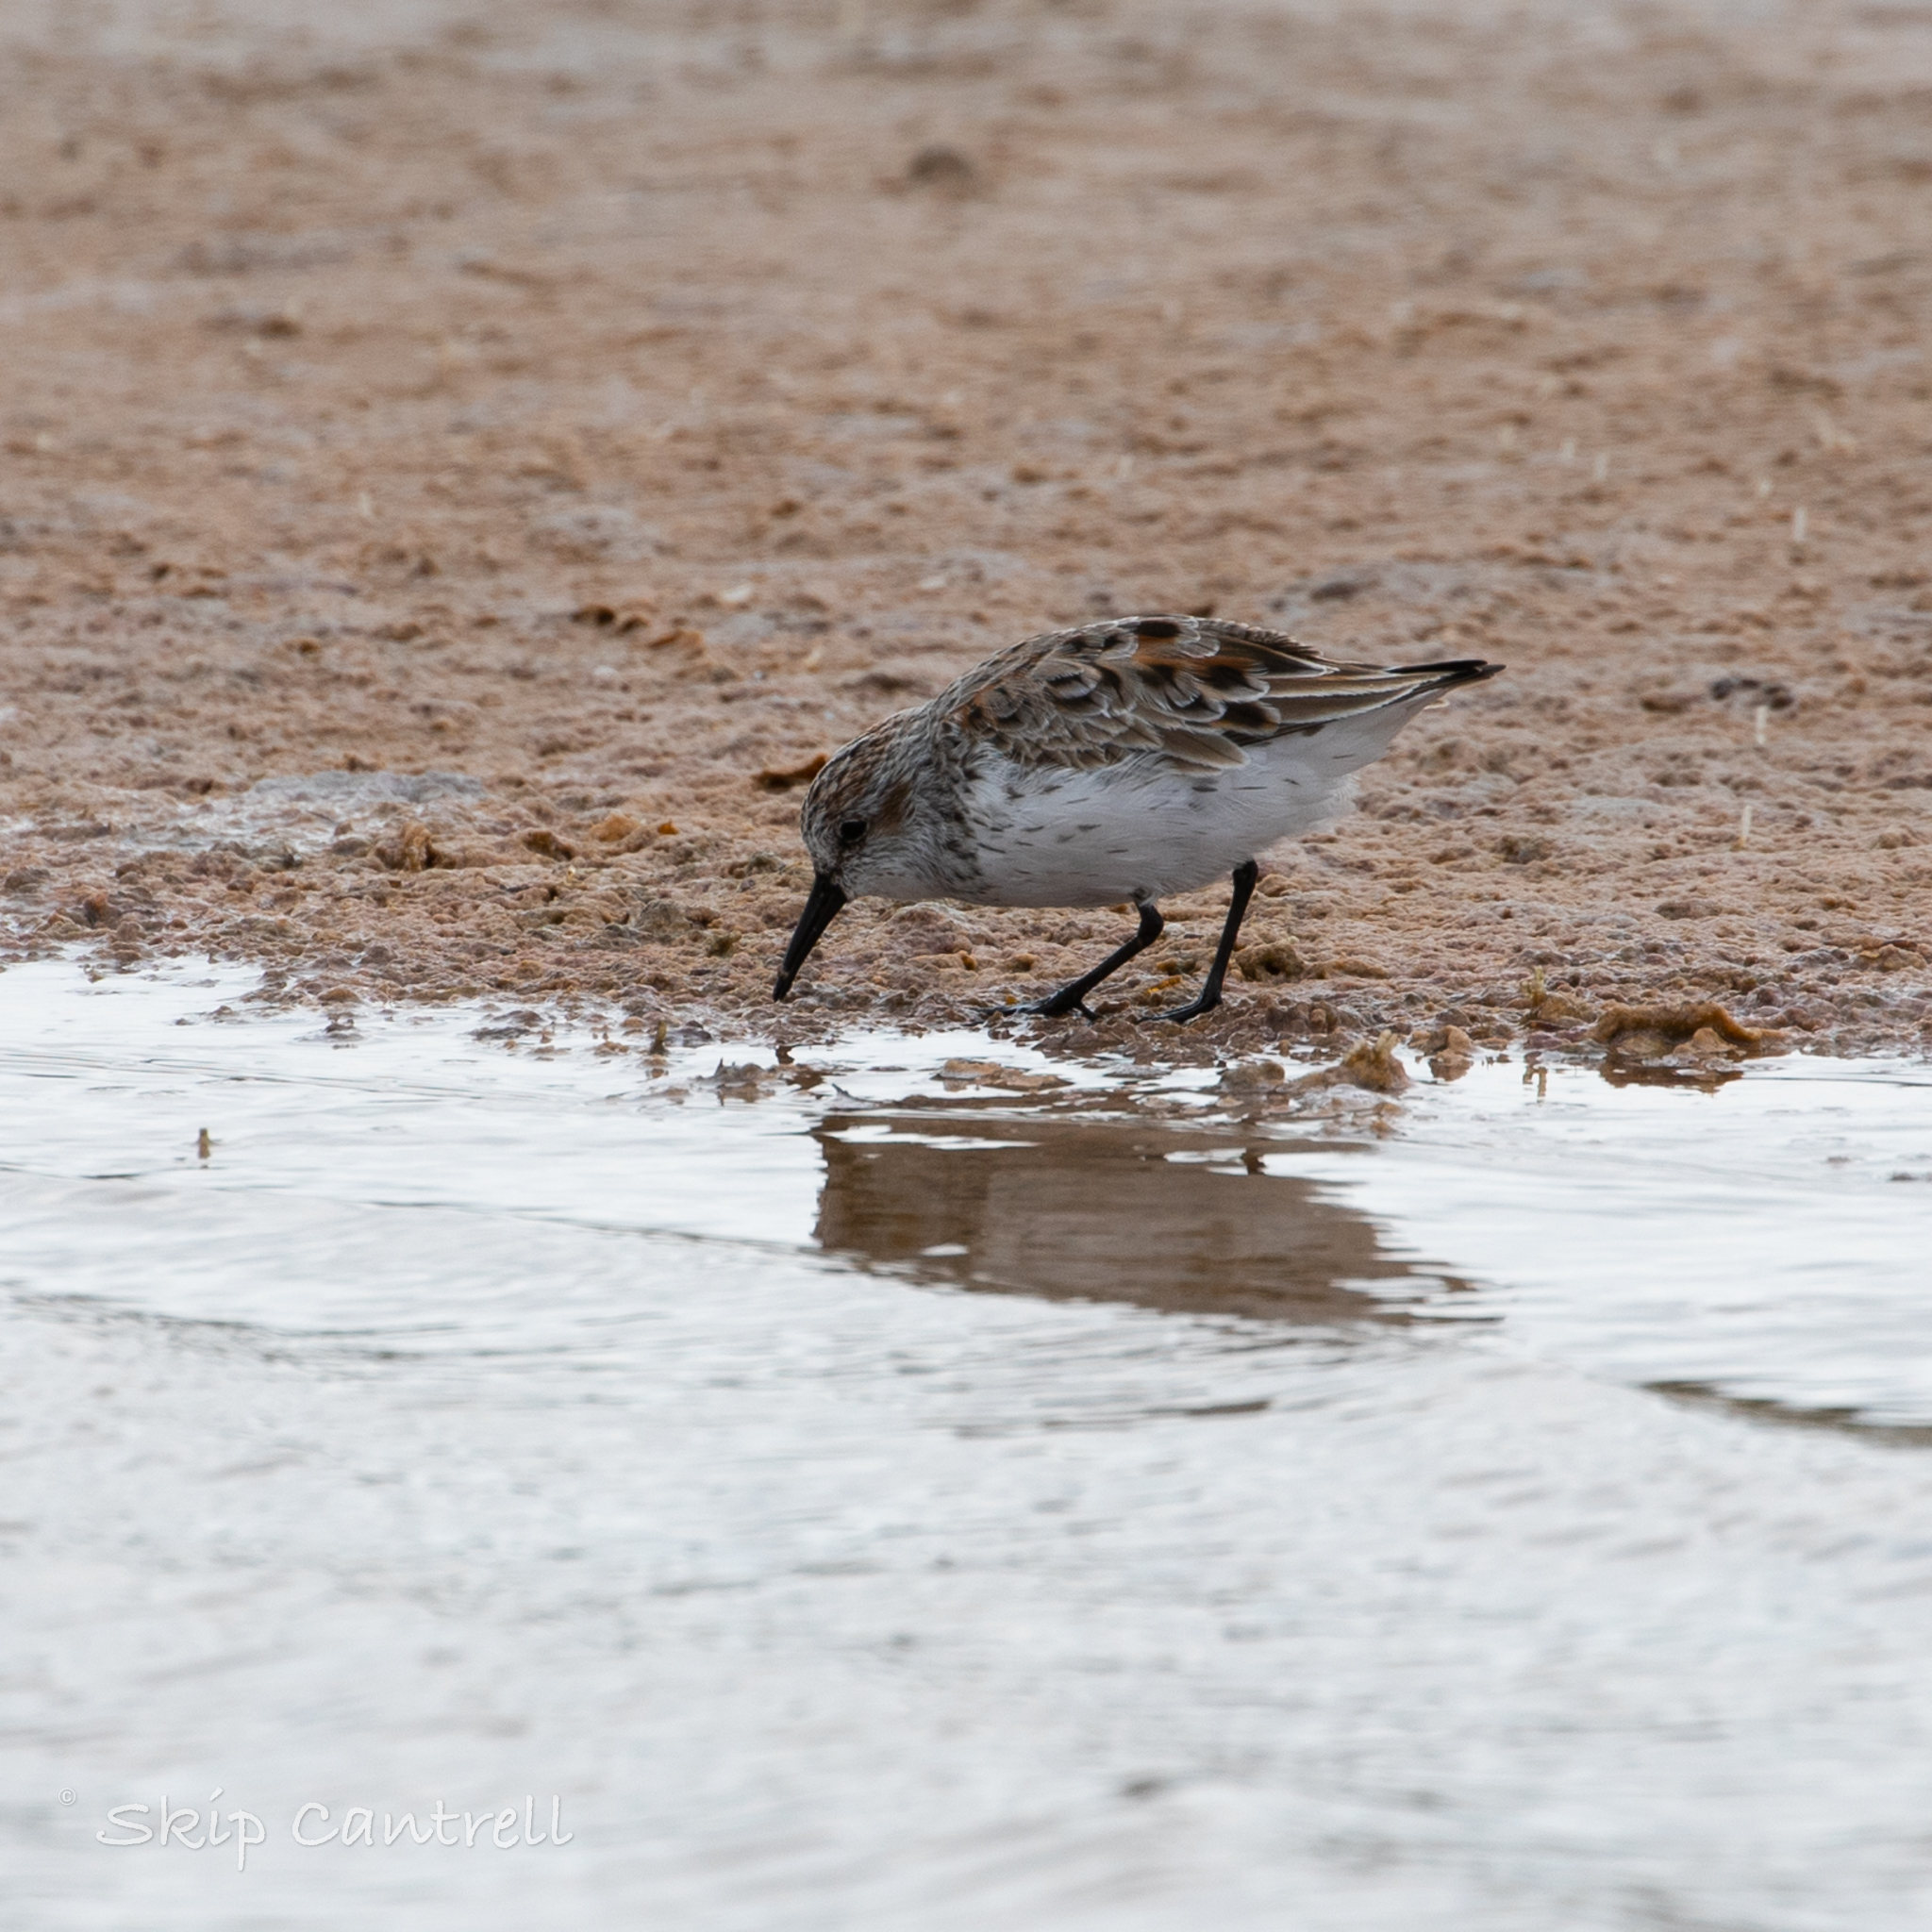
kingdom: Animalia
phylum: Chordata
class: Aves
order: Charadriiformes
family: Scolopacidae
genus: Calidris
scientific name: Calidris mauri
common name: Western sandpiper
